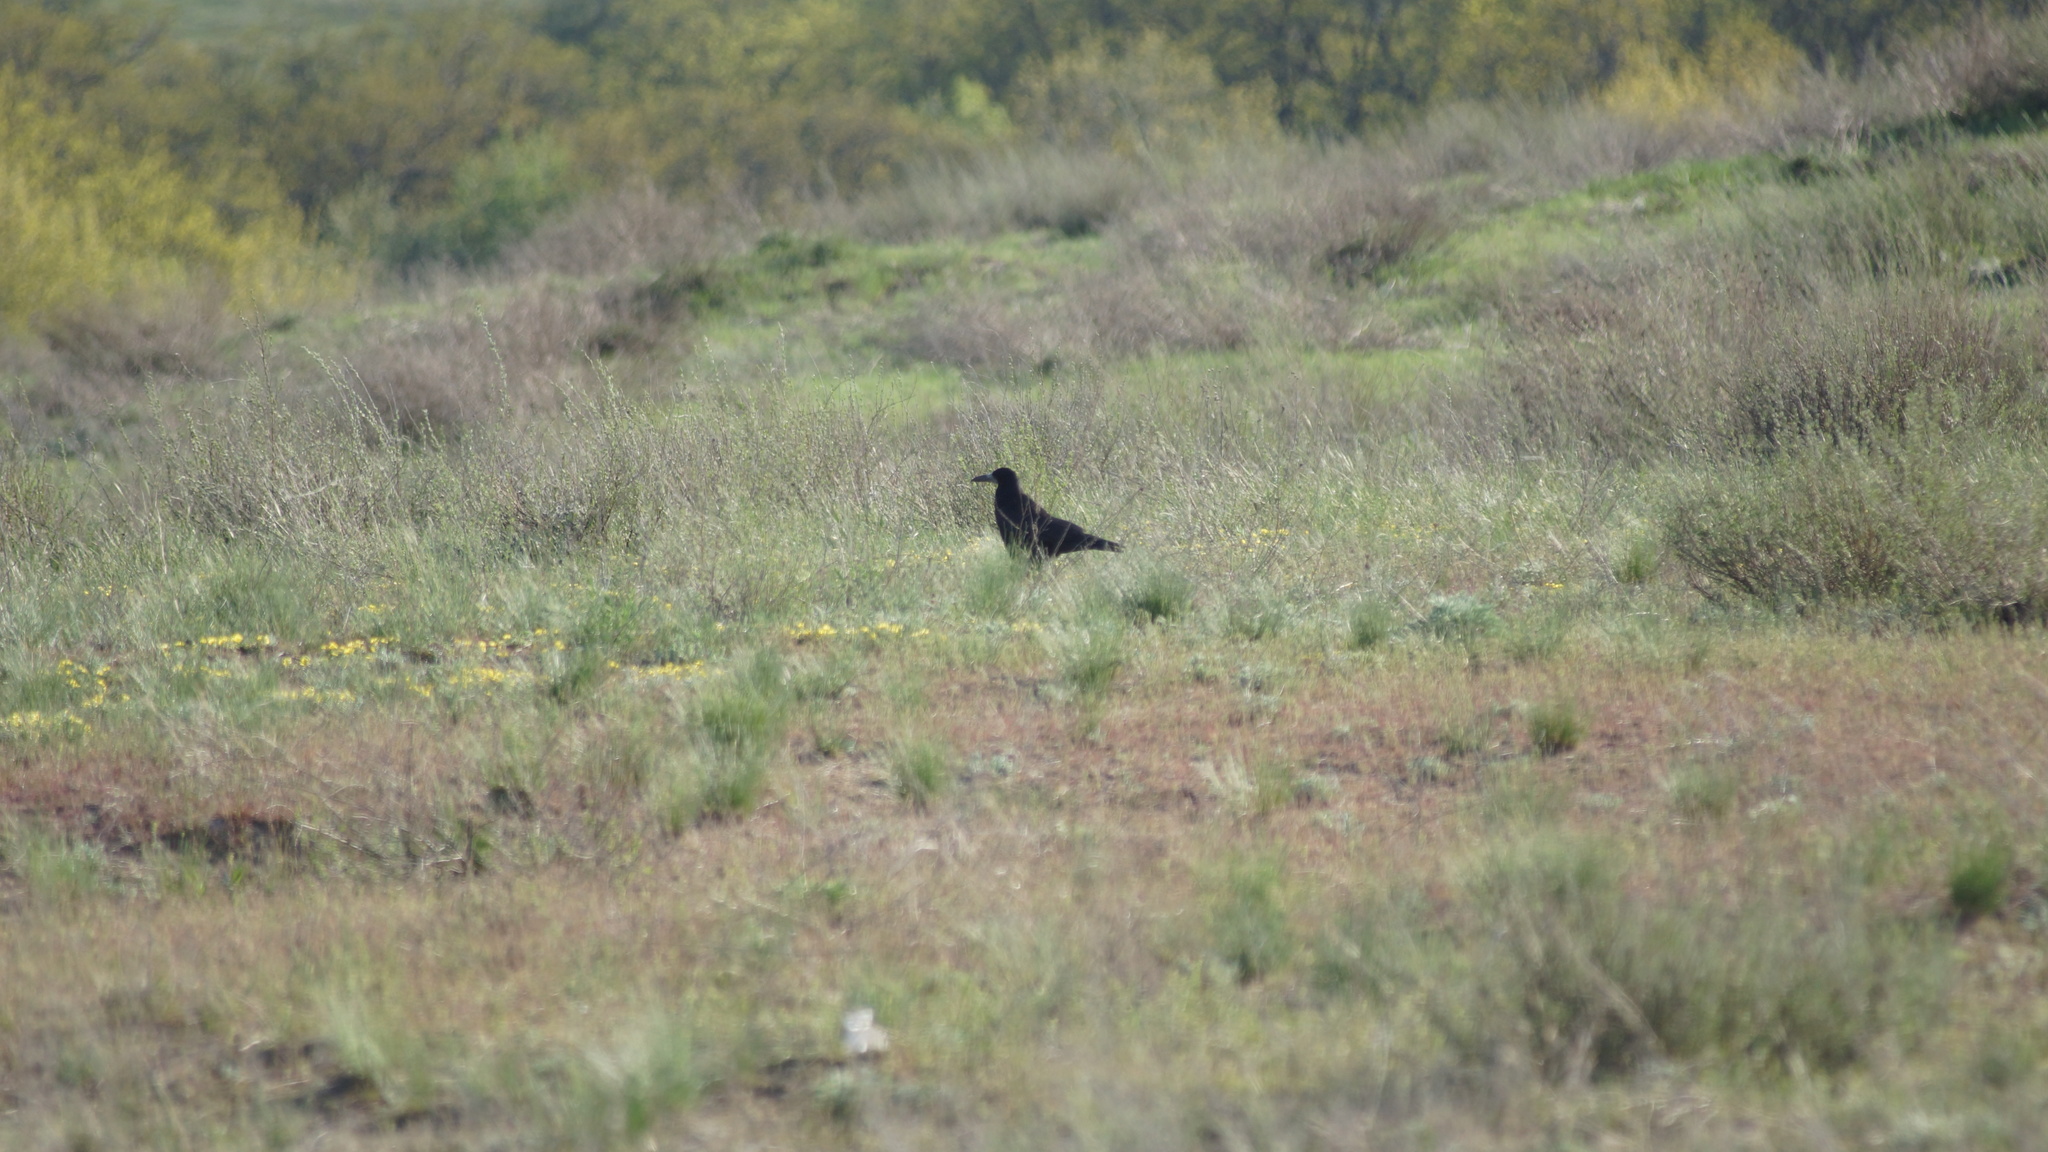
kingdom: Animalia
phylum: Chordata
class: Aves
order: Passeriformes
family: Corvidae
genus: Corvus
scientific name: Corvus frugilegus
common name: Rook
